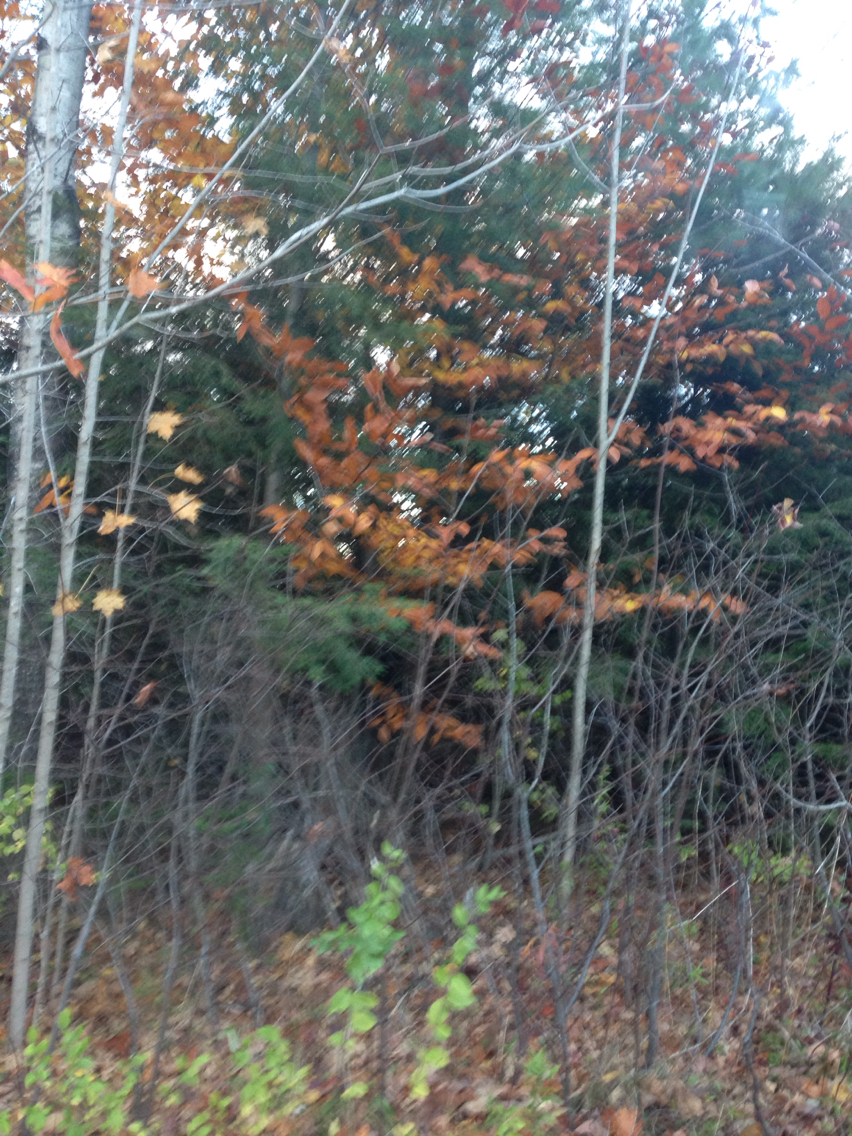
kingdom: Plantae
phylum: Tracheophyta
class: Magnoliopsida
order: Fagales
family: Fagaceae
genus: Fagus
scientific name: Fagus grandifolia
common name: American beech
